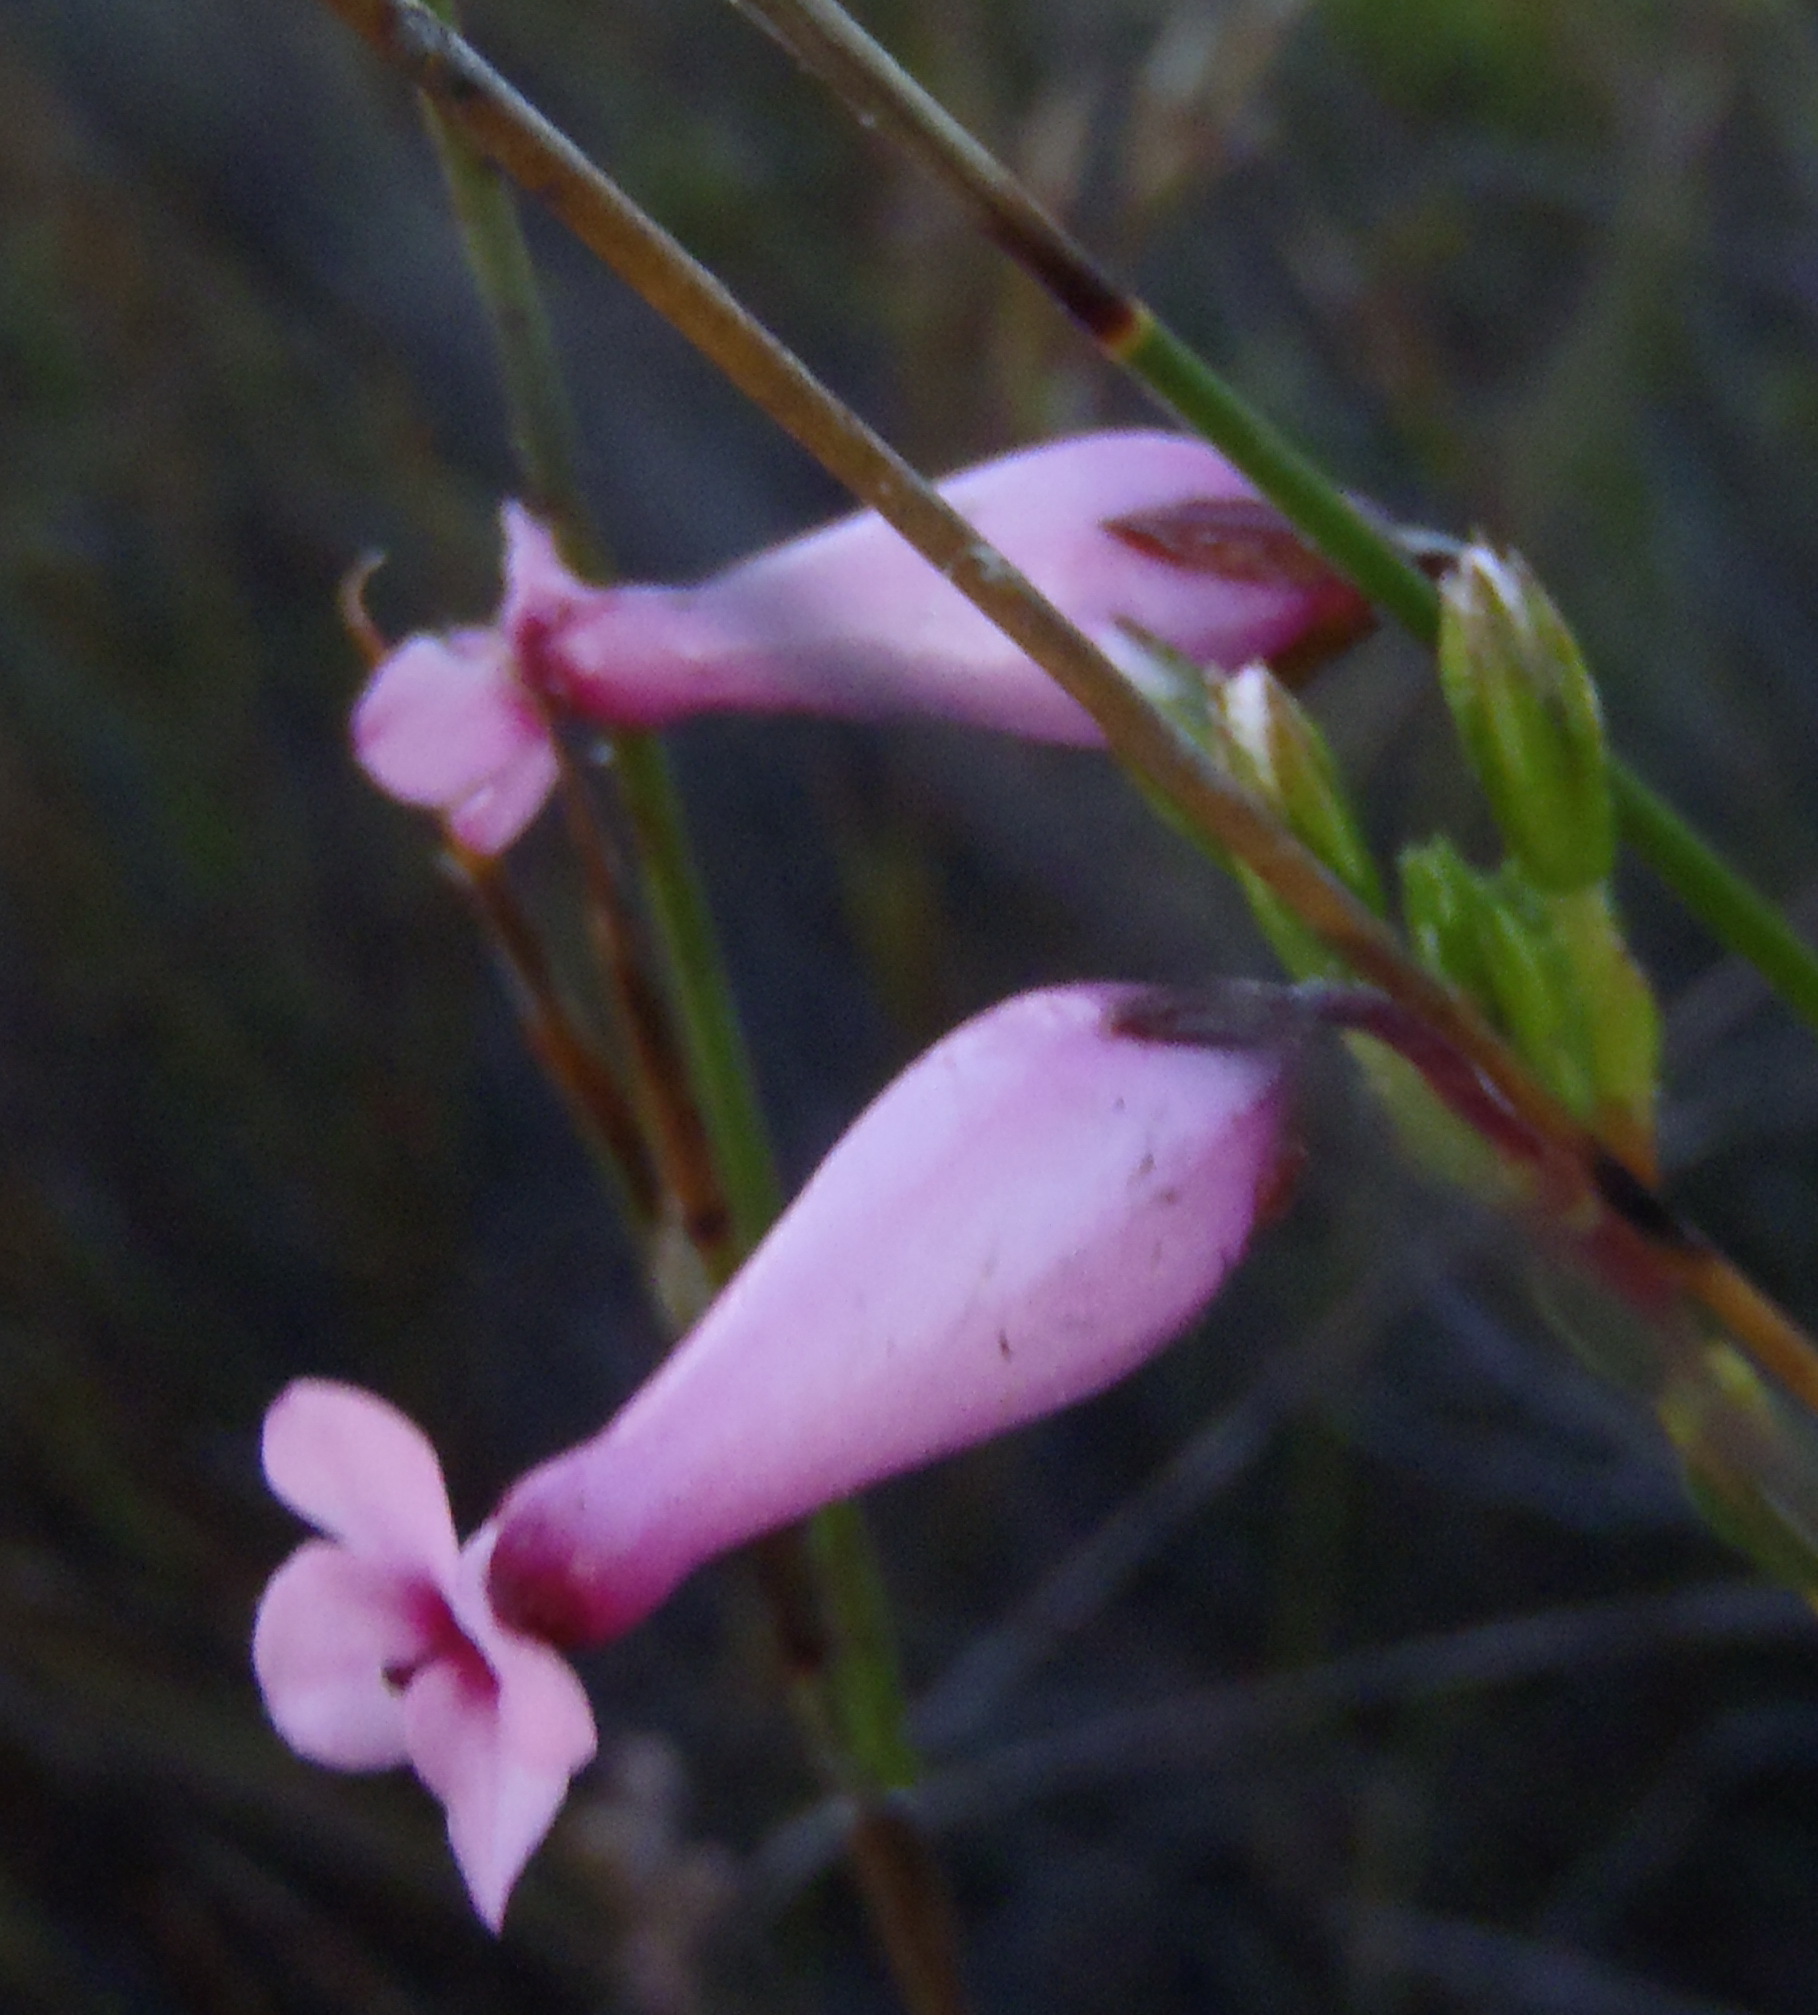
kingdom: Plantae
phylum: Tracheophyta
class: Magnoliopsida
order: Ericales
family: Ericaceae
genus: Erica
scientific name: Erica irbyana
